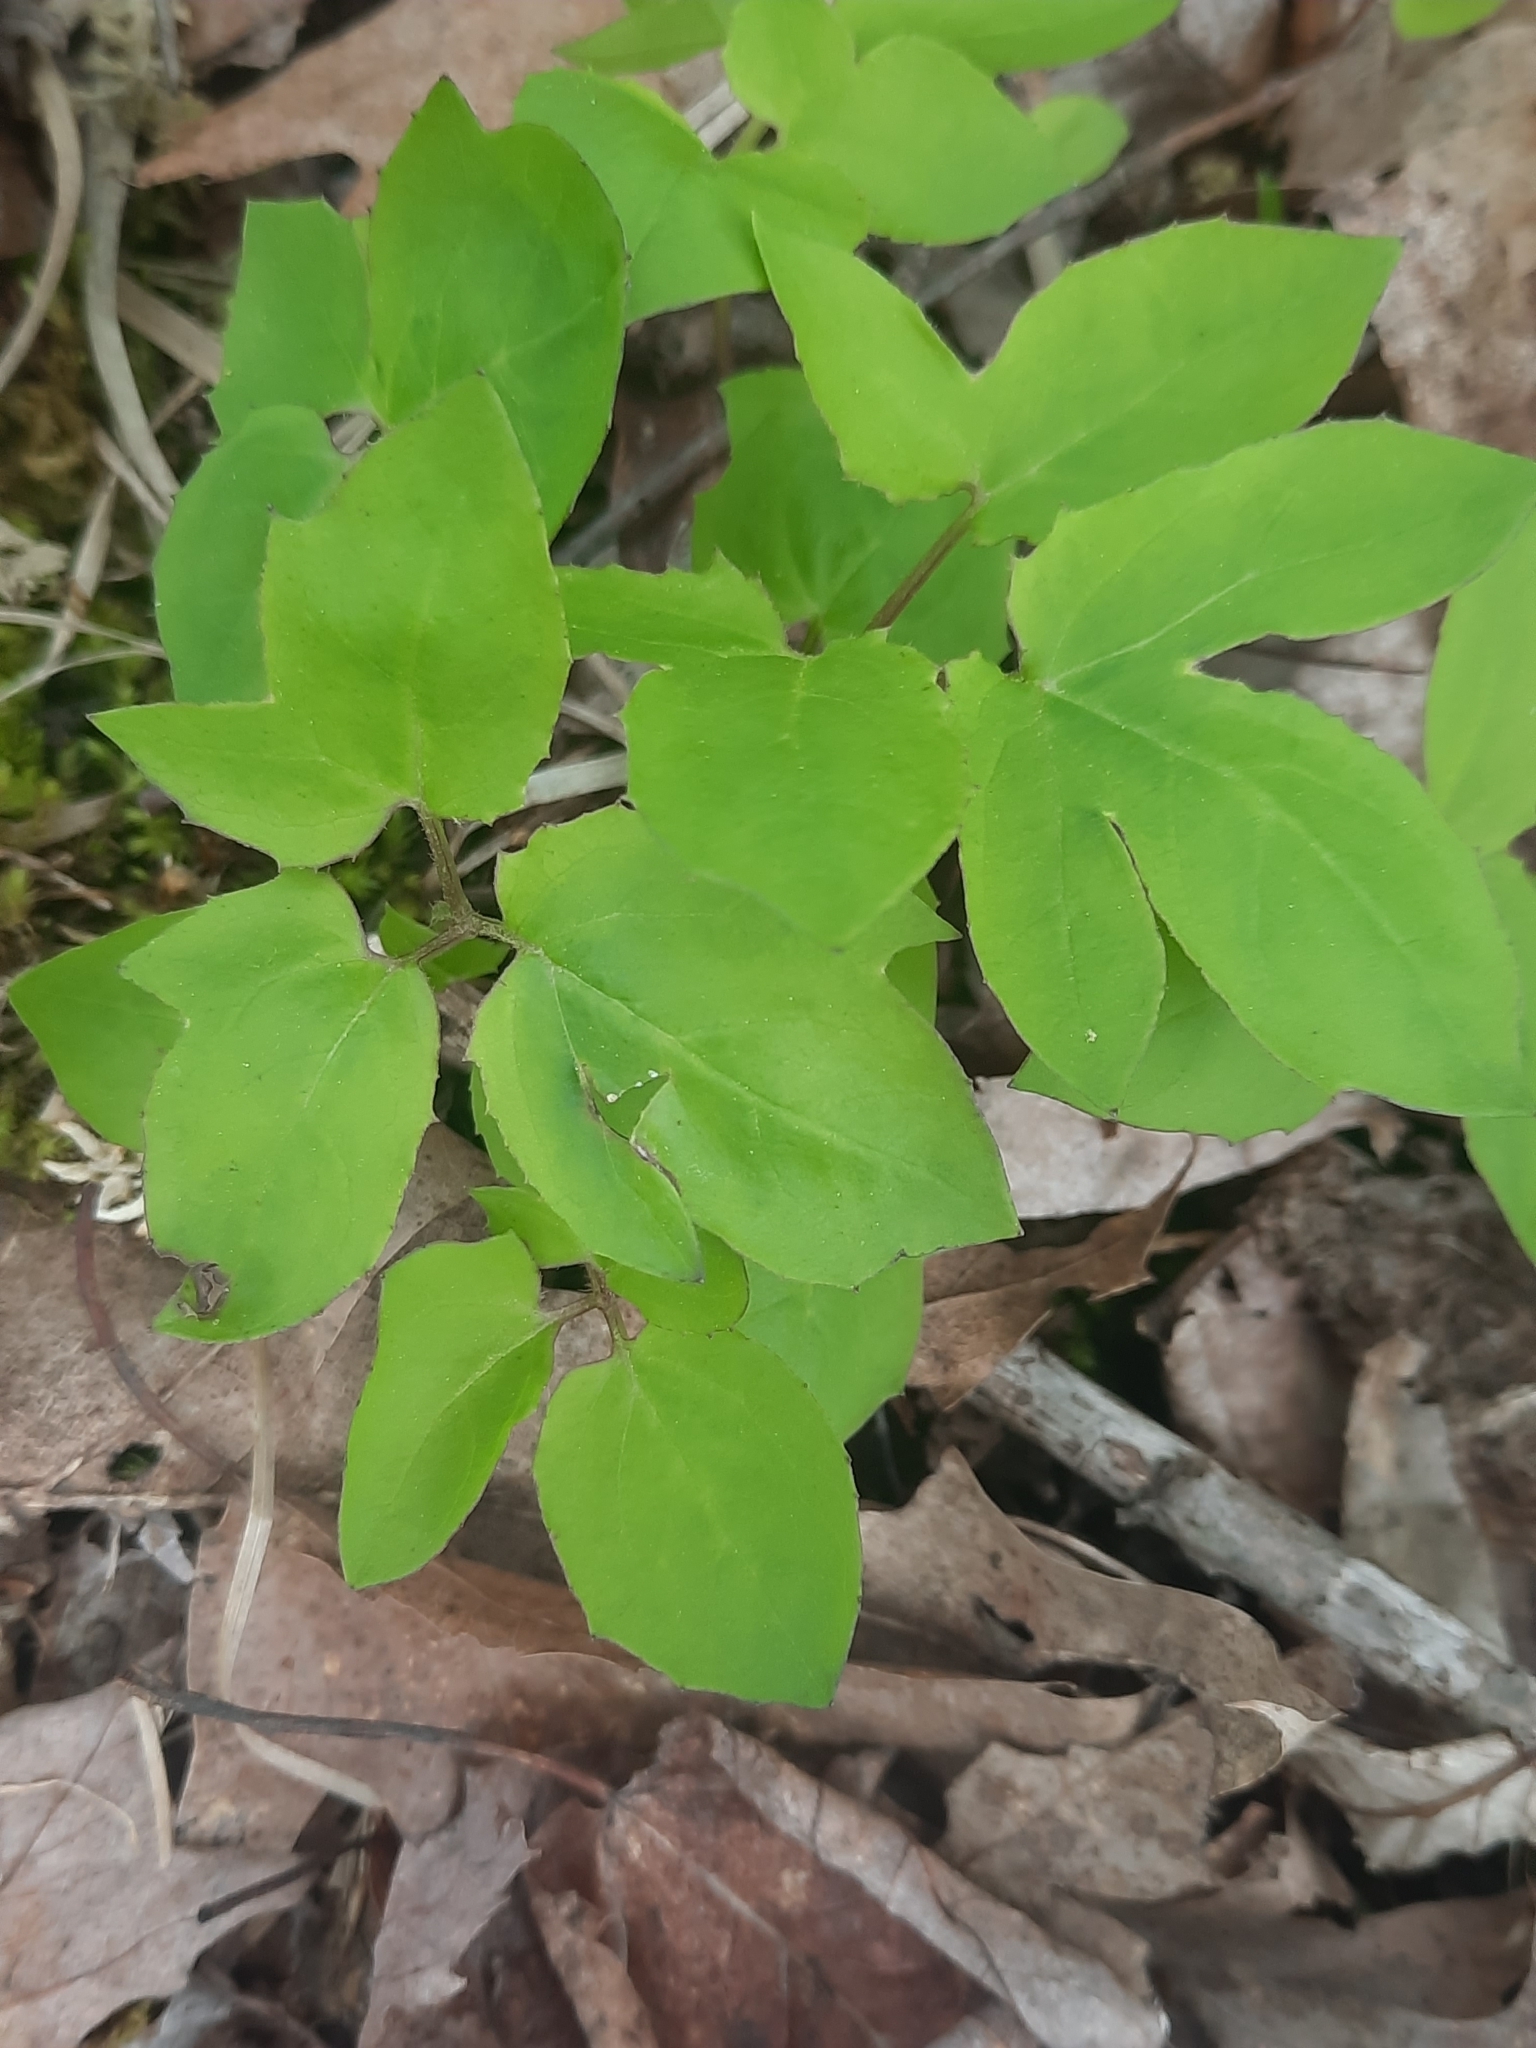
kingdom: Plantae
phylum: Tracheophyta
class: Magnoliopsida
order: Asterales
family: Asteraceae
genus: Nabalus
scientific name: Nabalus
